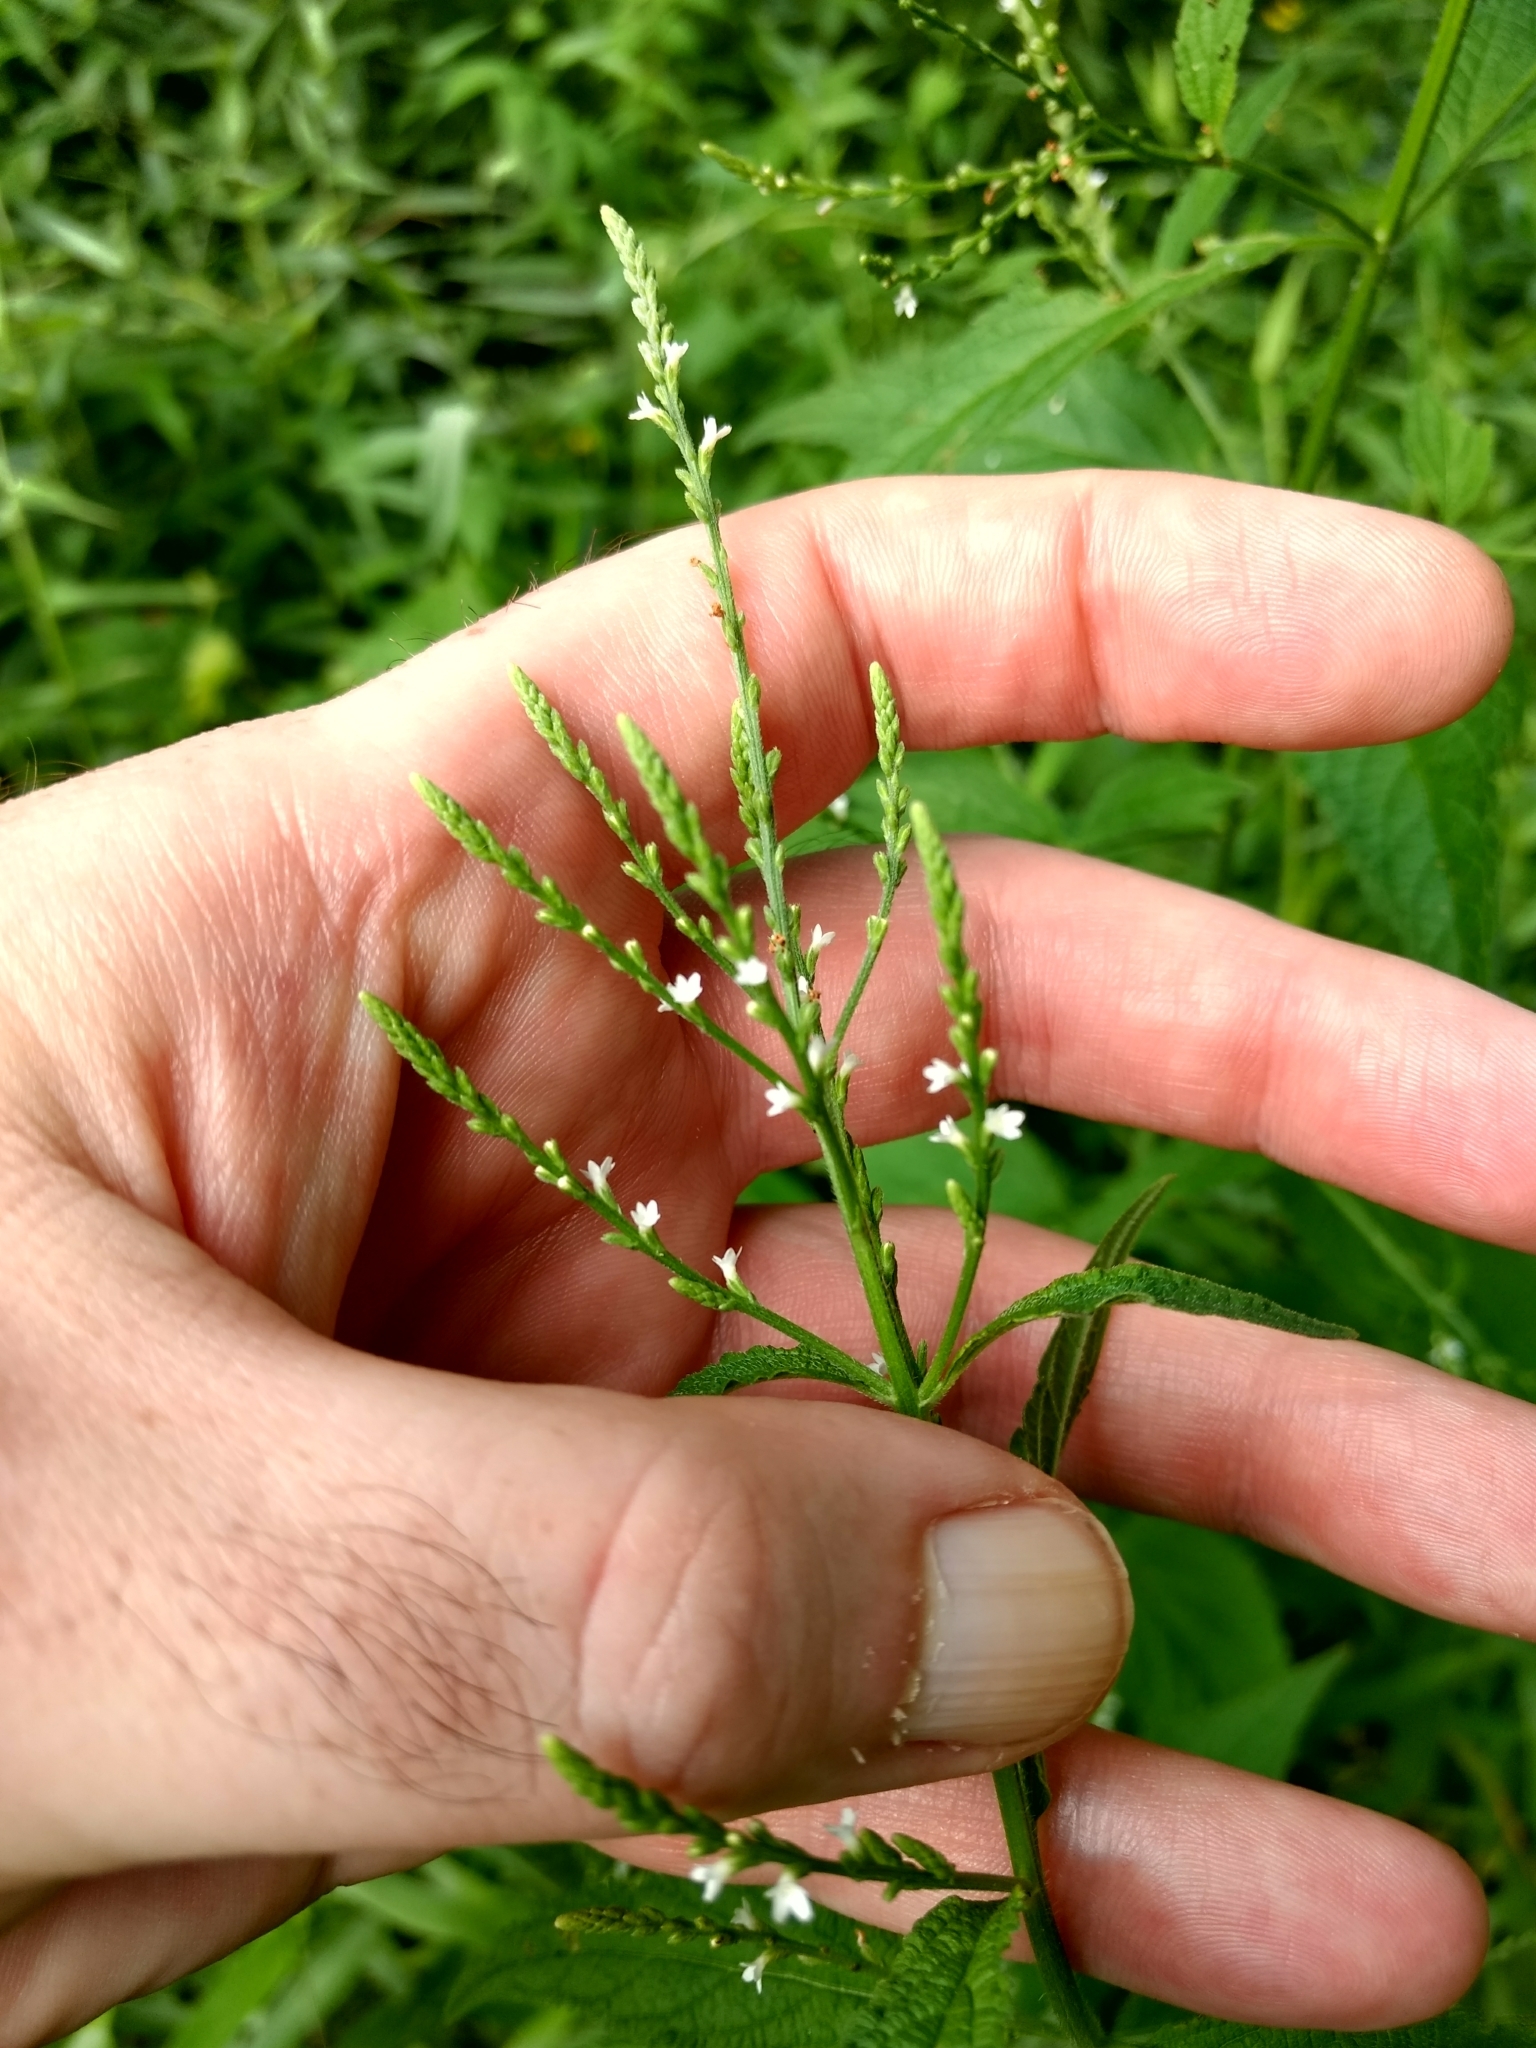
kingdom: Plantae
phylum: Tracheophyta
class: Magnoliopsida
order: Lamiales
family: Verbenaceae
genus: Verbena
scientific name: Verbena urticifolia
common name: Nettle-leaved vervain
